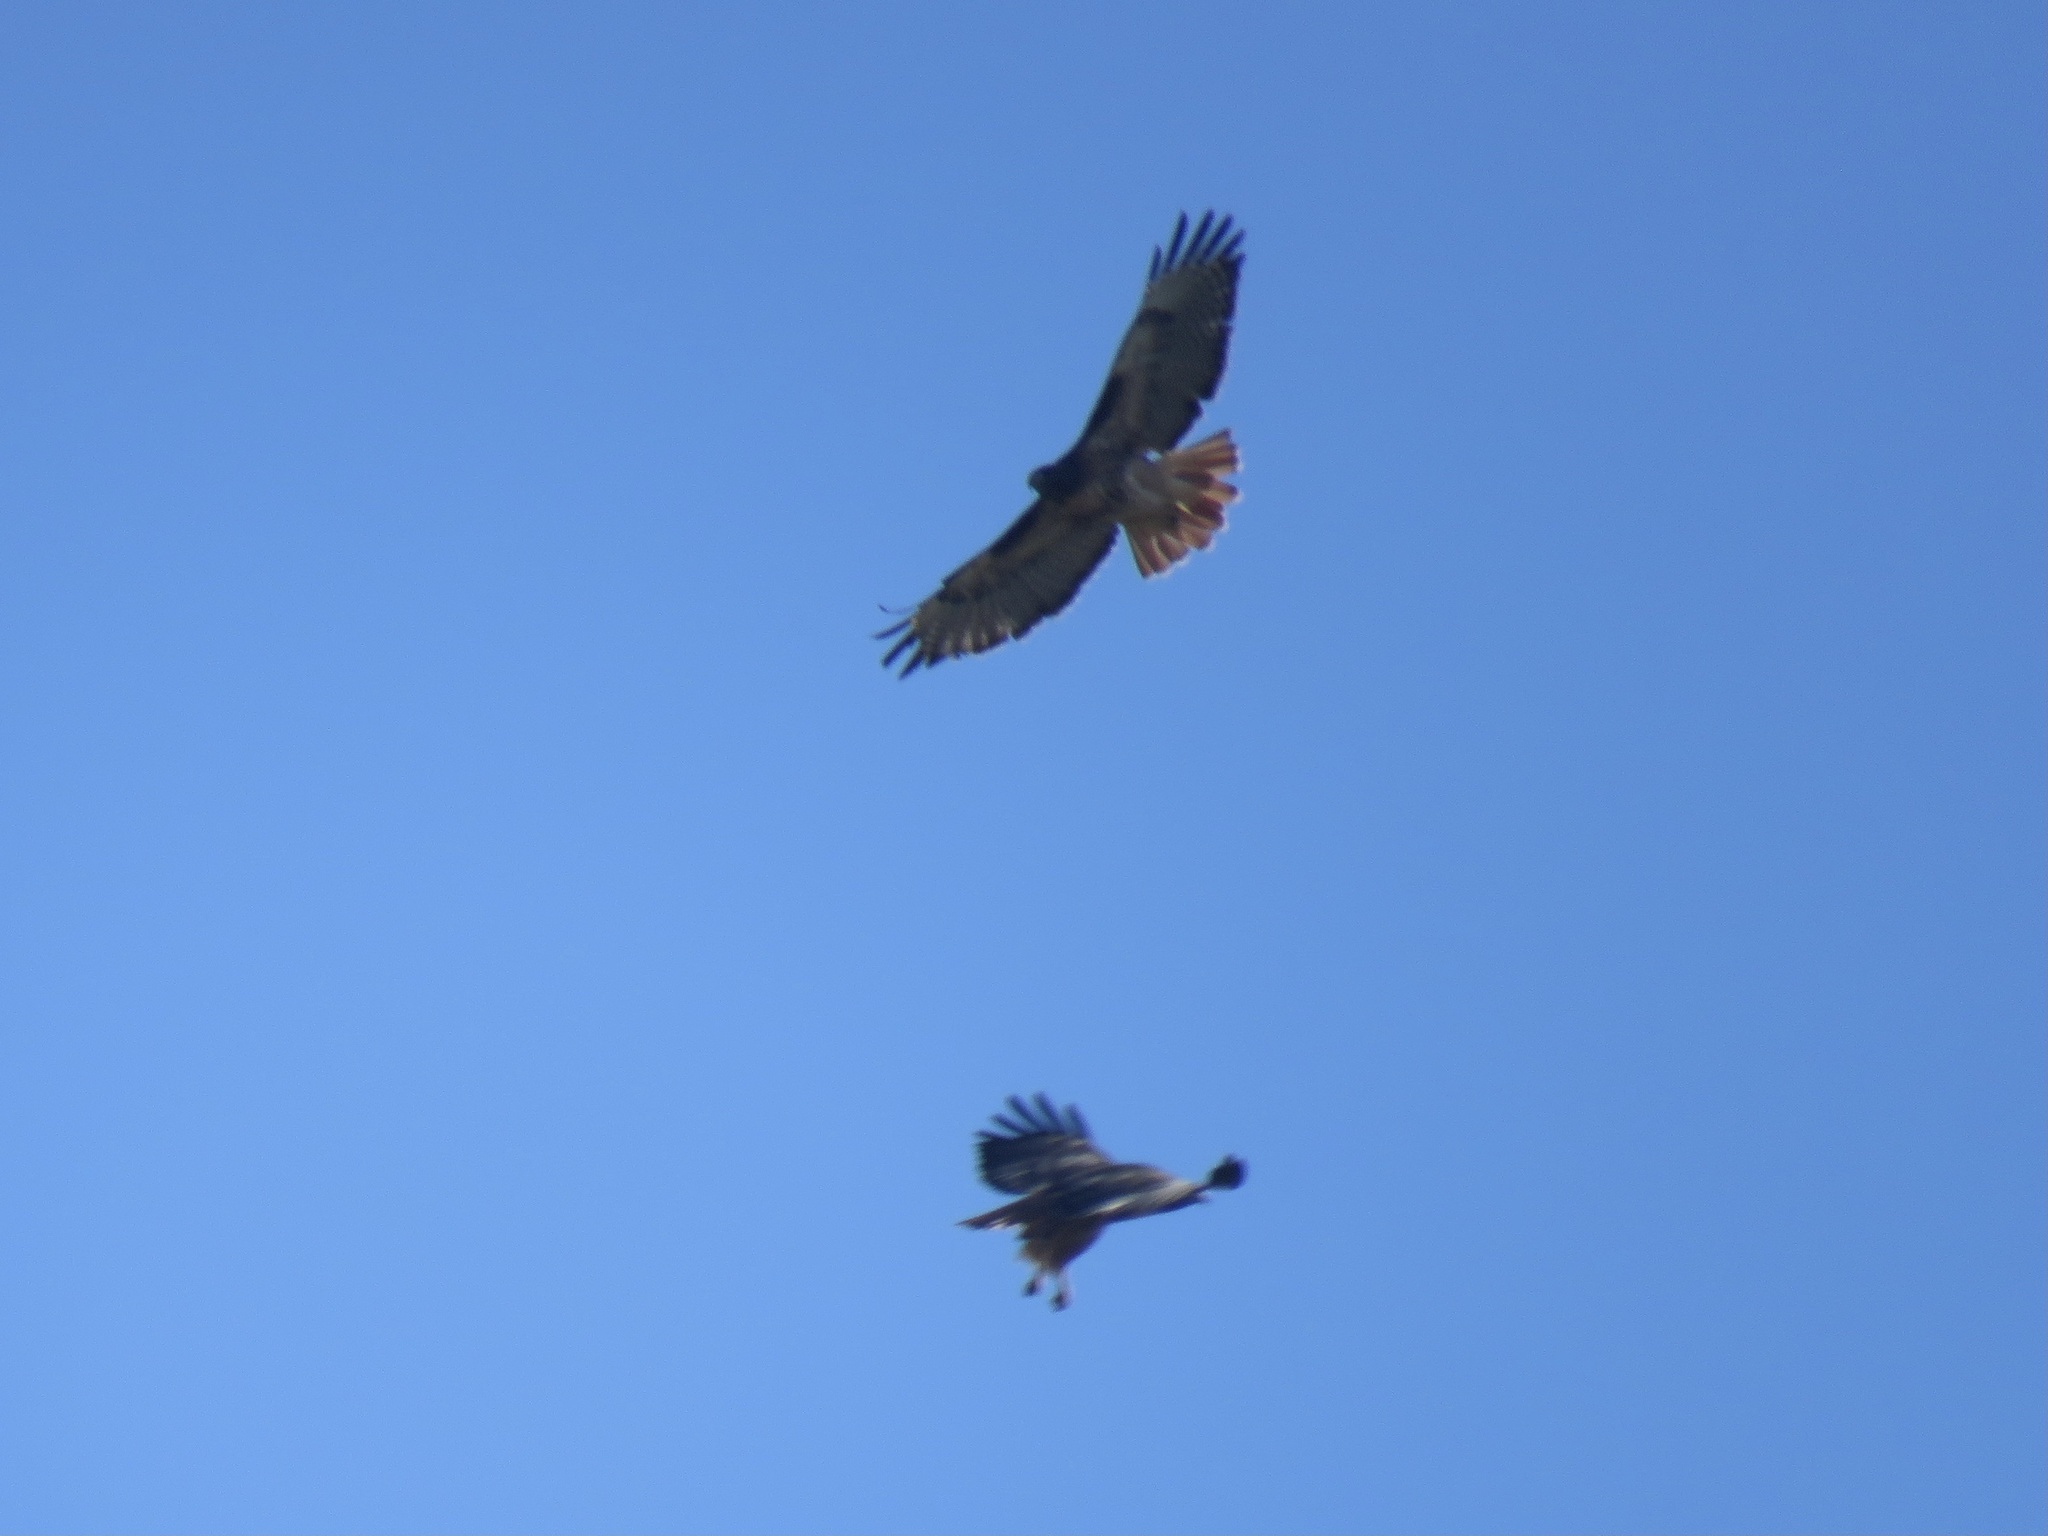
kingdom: Animalia
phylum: Chordata
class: Aves
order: Accipitriformes
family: Accipitridae
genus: Buteo
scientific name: Buteo jamaicensis
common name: Red-tailed hawk
